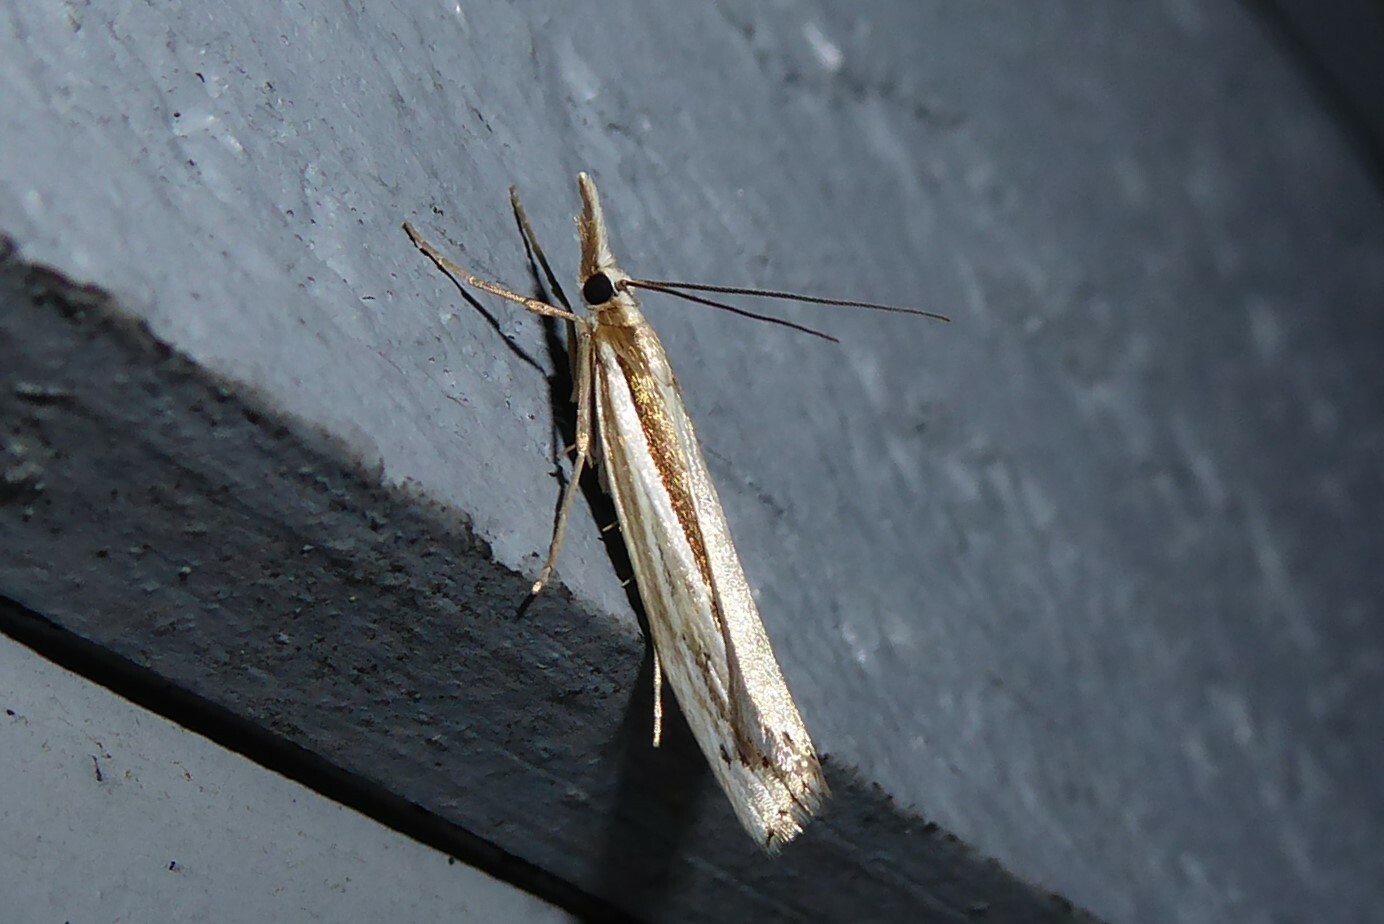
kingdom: Animalia
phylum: Arthropoda
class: Insecta
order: Lepidoptera
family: Crambidae
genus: Orocrambus
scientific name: Orocrambus ramosellus
